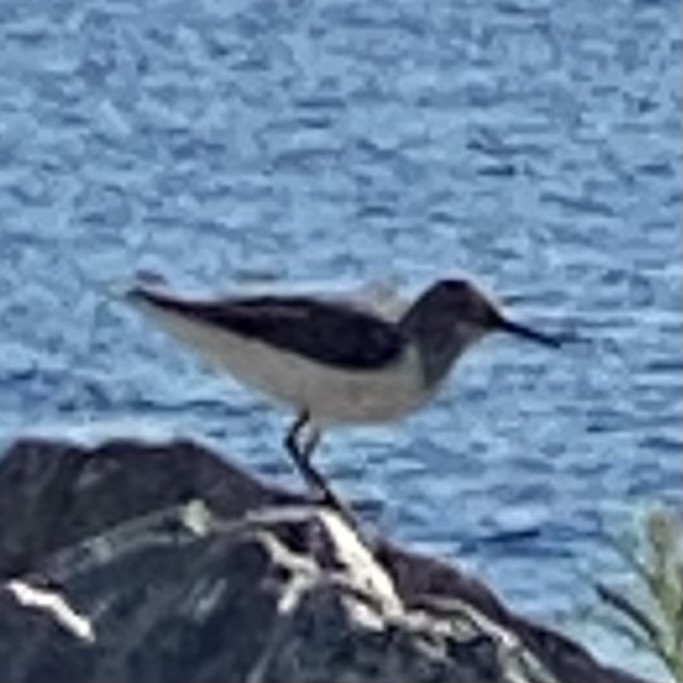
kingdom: Animalia
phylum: Chordata
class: Aves
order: Charadriiformes
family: Scolopacidae
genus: Actitis
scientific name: Actitis hypoleucos
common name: Common sandpiper
